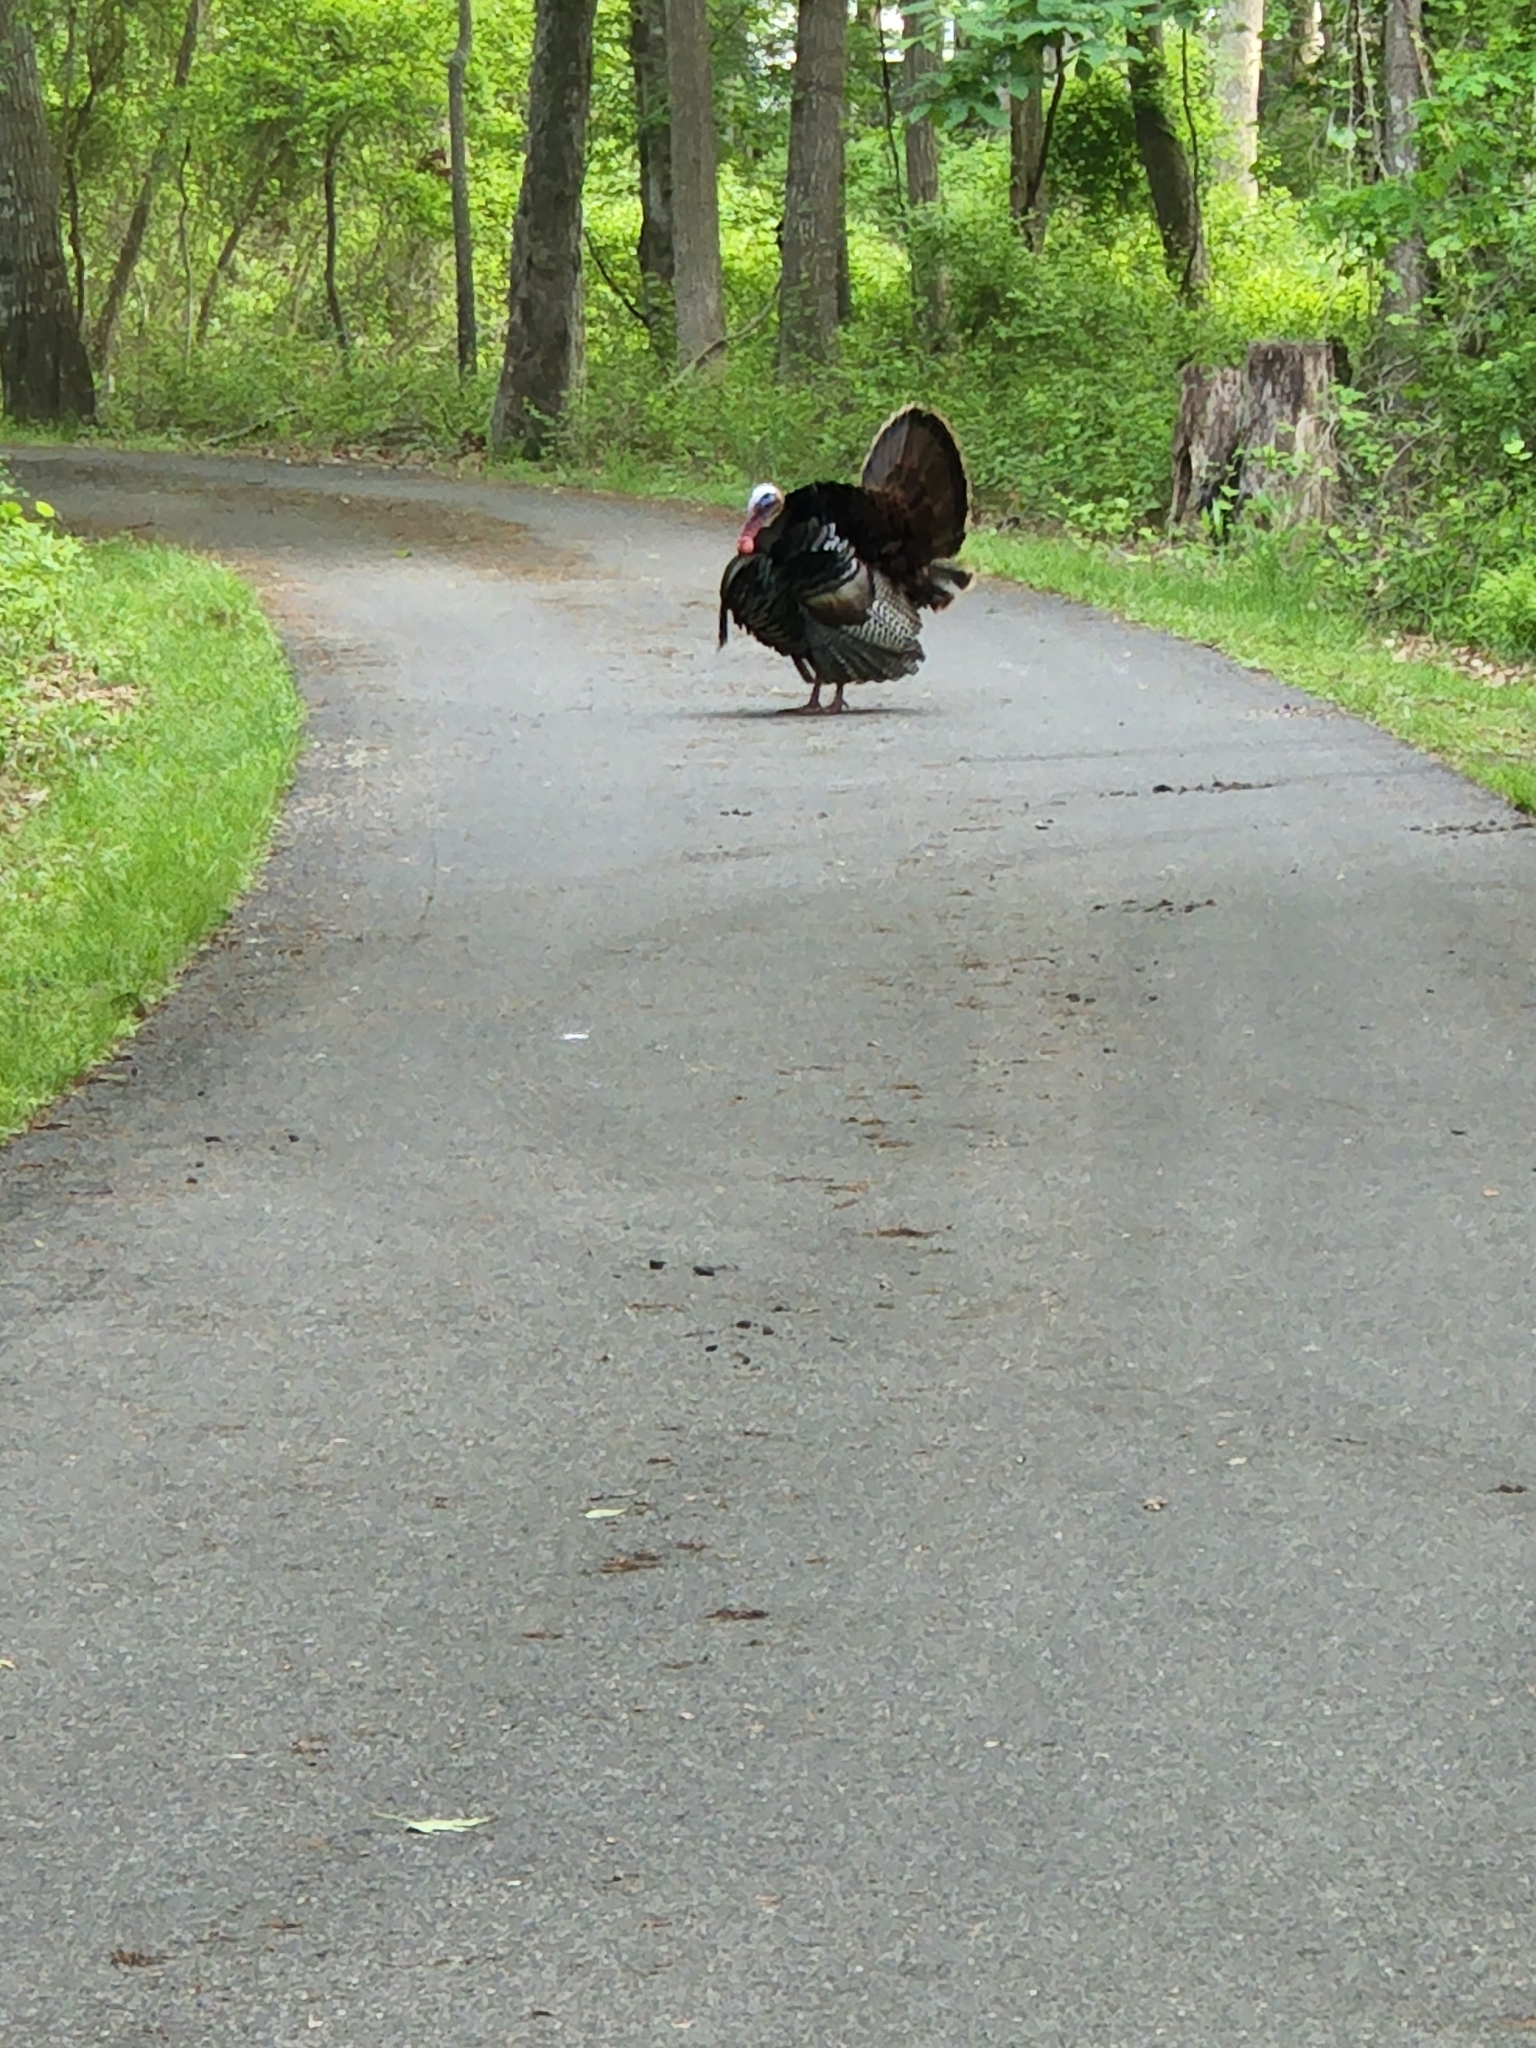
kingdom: Animalia
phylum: Chordata
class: Aves
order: Galliformes
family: Phasianidae
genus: Meleagris
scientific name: Meleagris gallopavo
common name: Wild turkey
